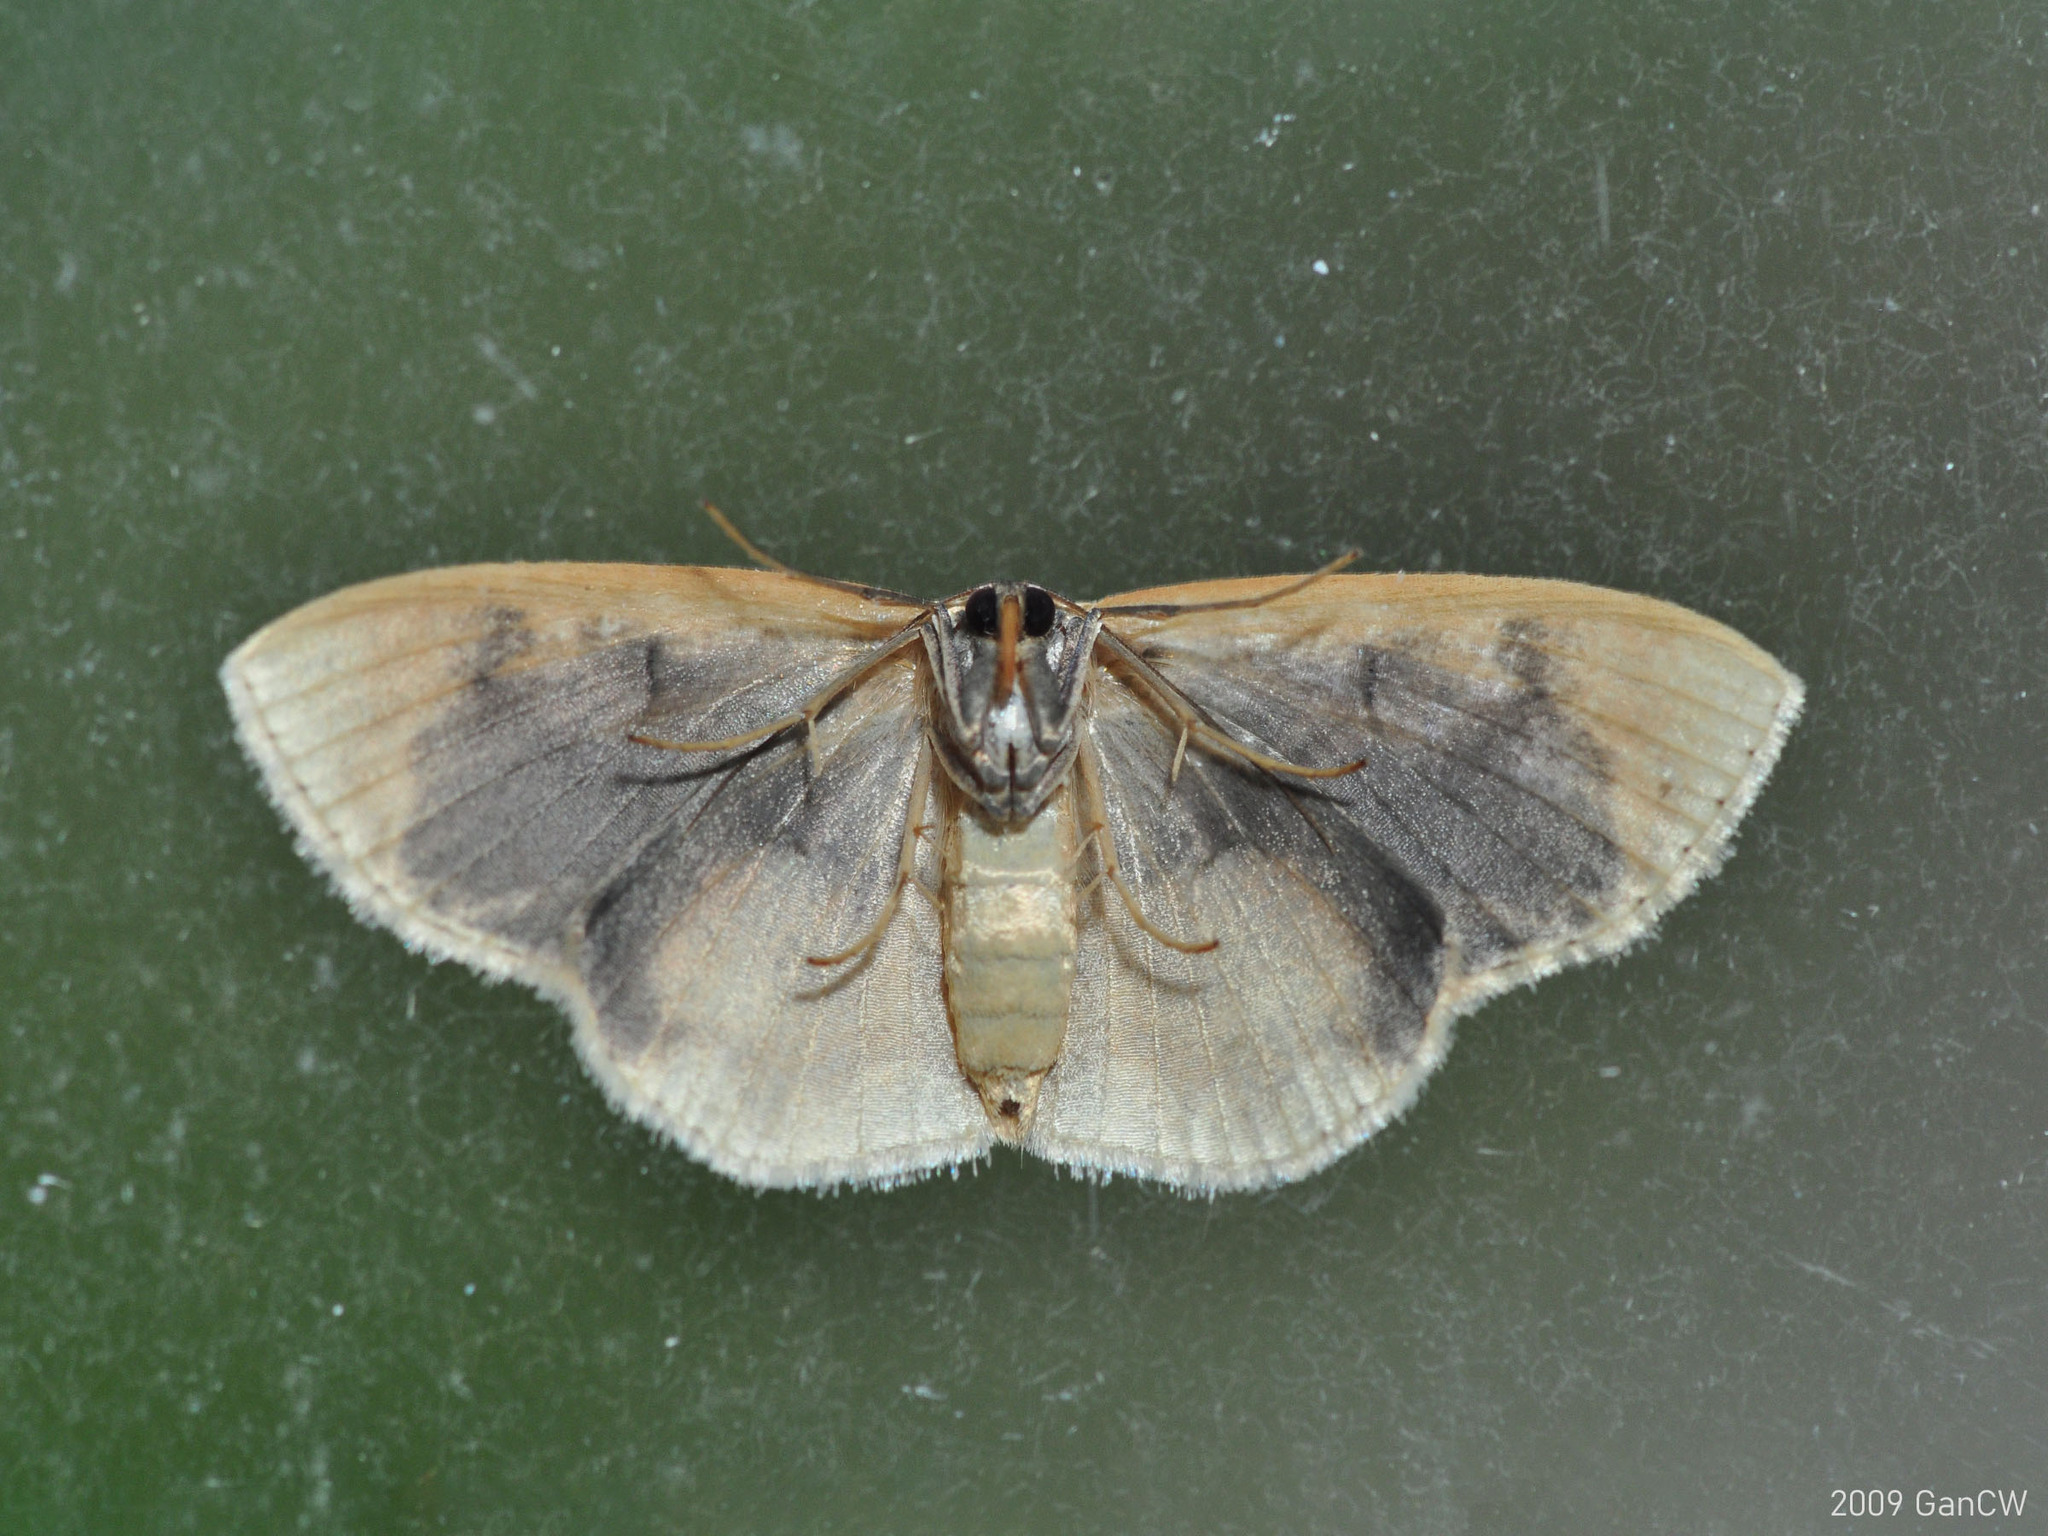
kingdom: Animalia
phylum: Arthropoda
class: Insecta
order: Lepidoptera
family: Geometridae
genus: Lipomelia
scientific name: Lipomelia subusta
